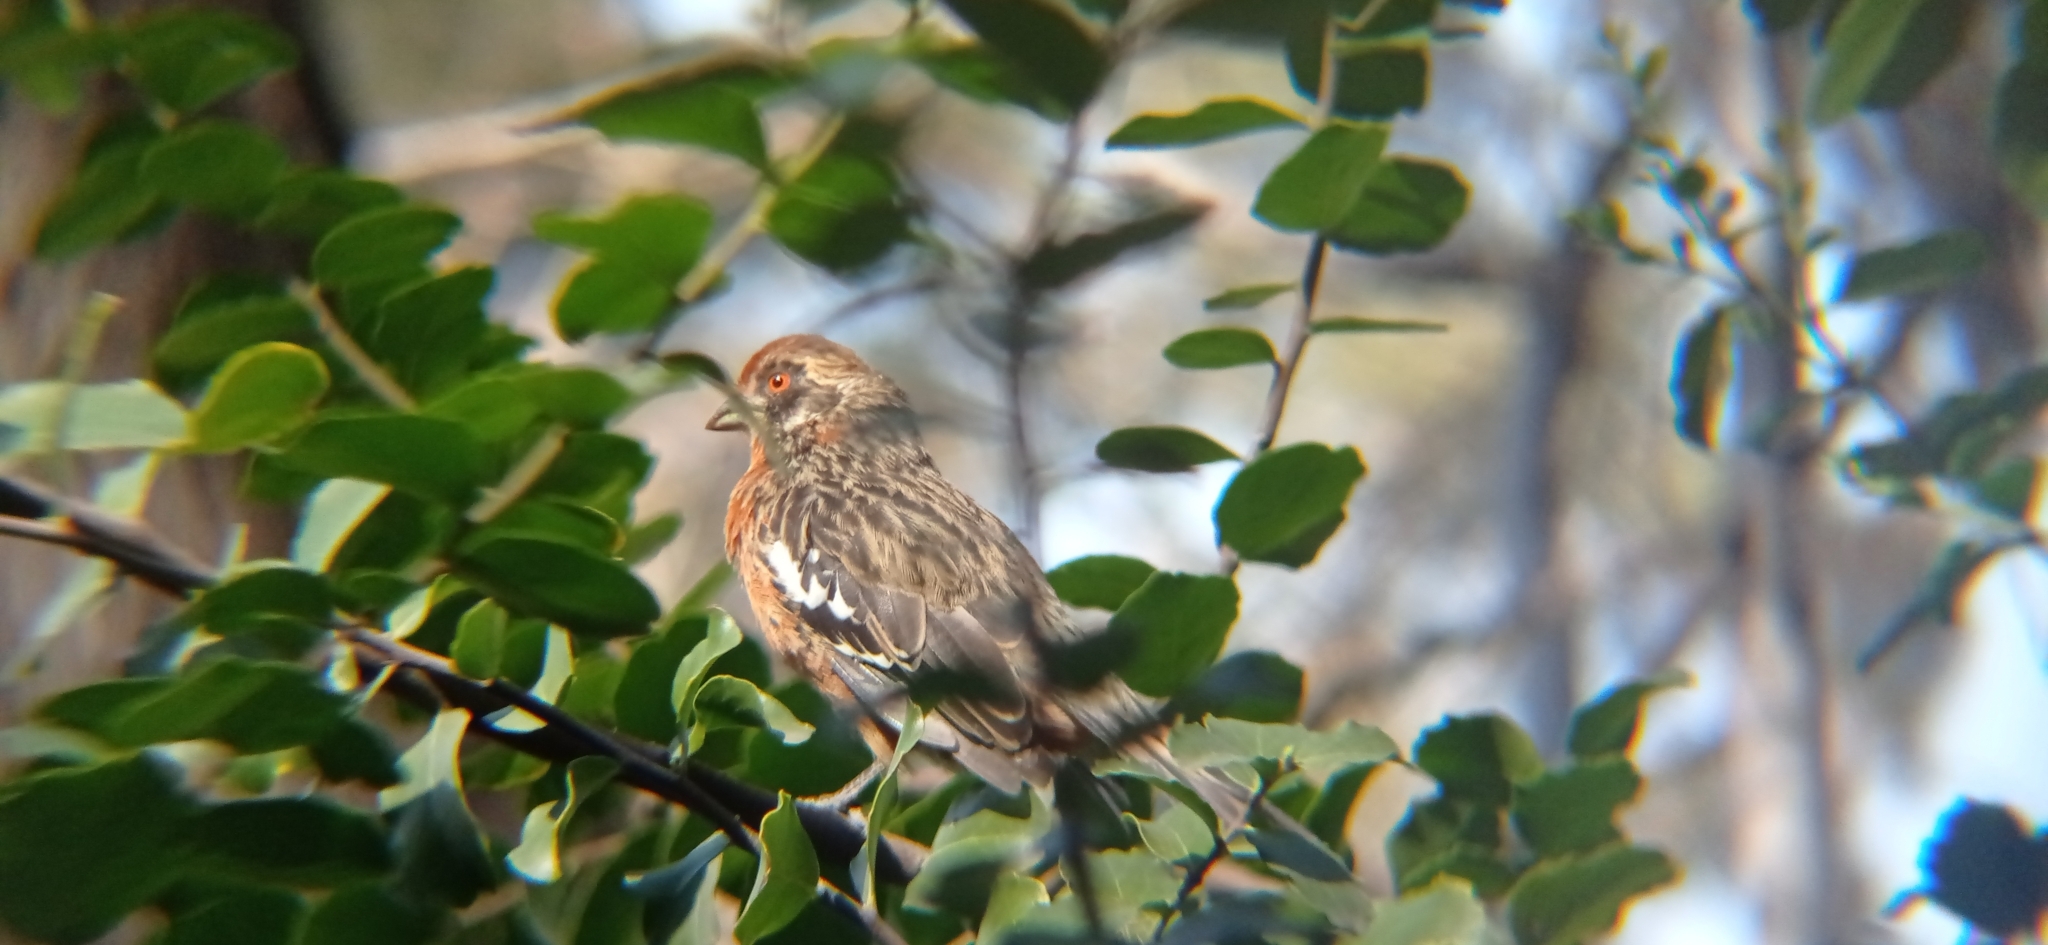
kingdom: Animalia
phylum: Chordata
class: Aves
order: Passeriformes
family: Cotingidae
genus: Phytotoma
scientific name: Phytotoma rara
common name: Rufous-tailed plantcutter
